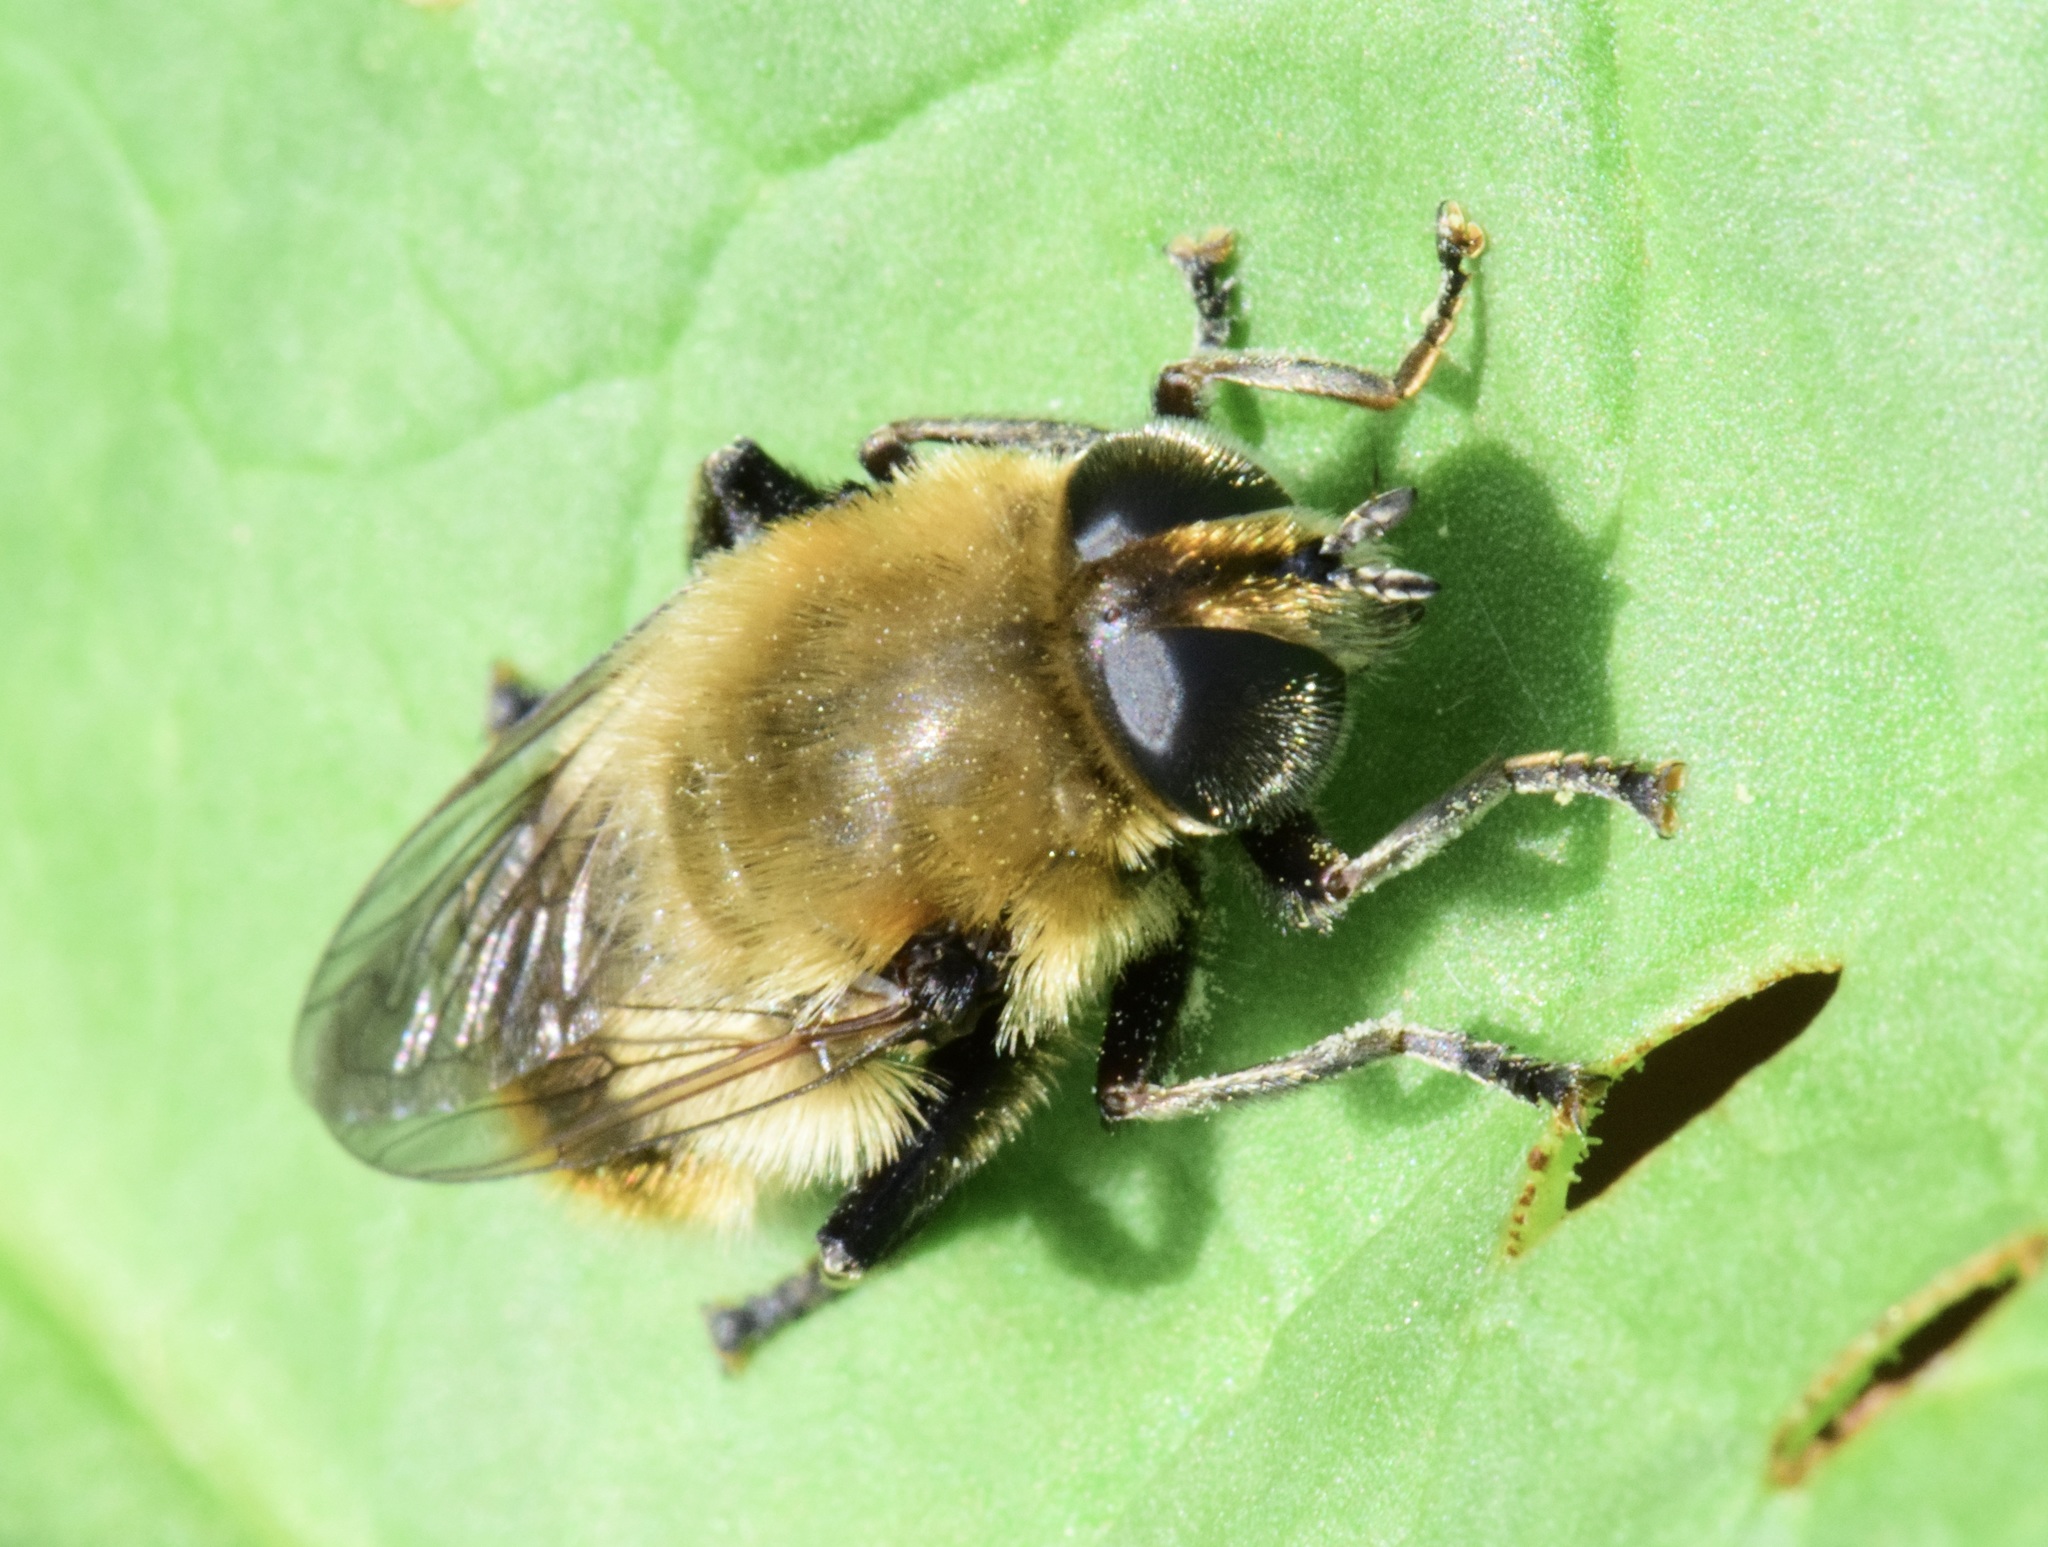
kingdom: Animalia
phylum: Arthropoda
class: Insecta
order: Diptera
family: Syrphidae
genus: Merodon
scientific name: Merodon equestris
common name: Greater bulb-fly
